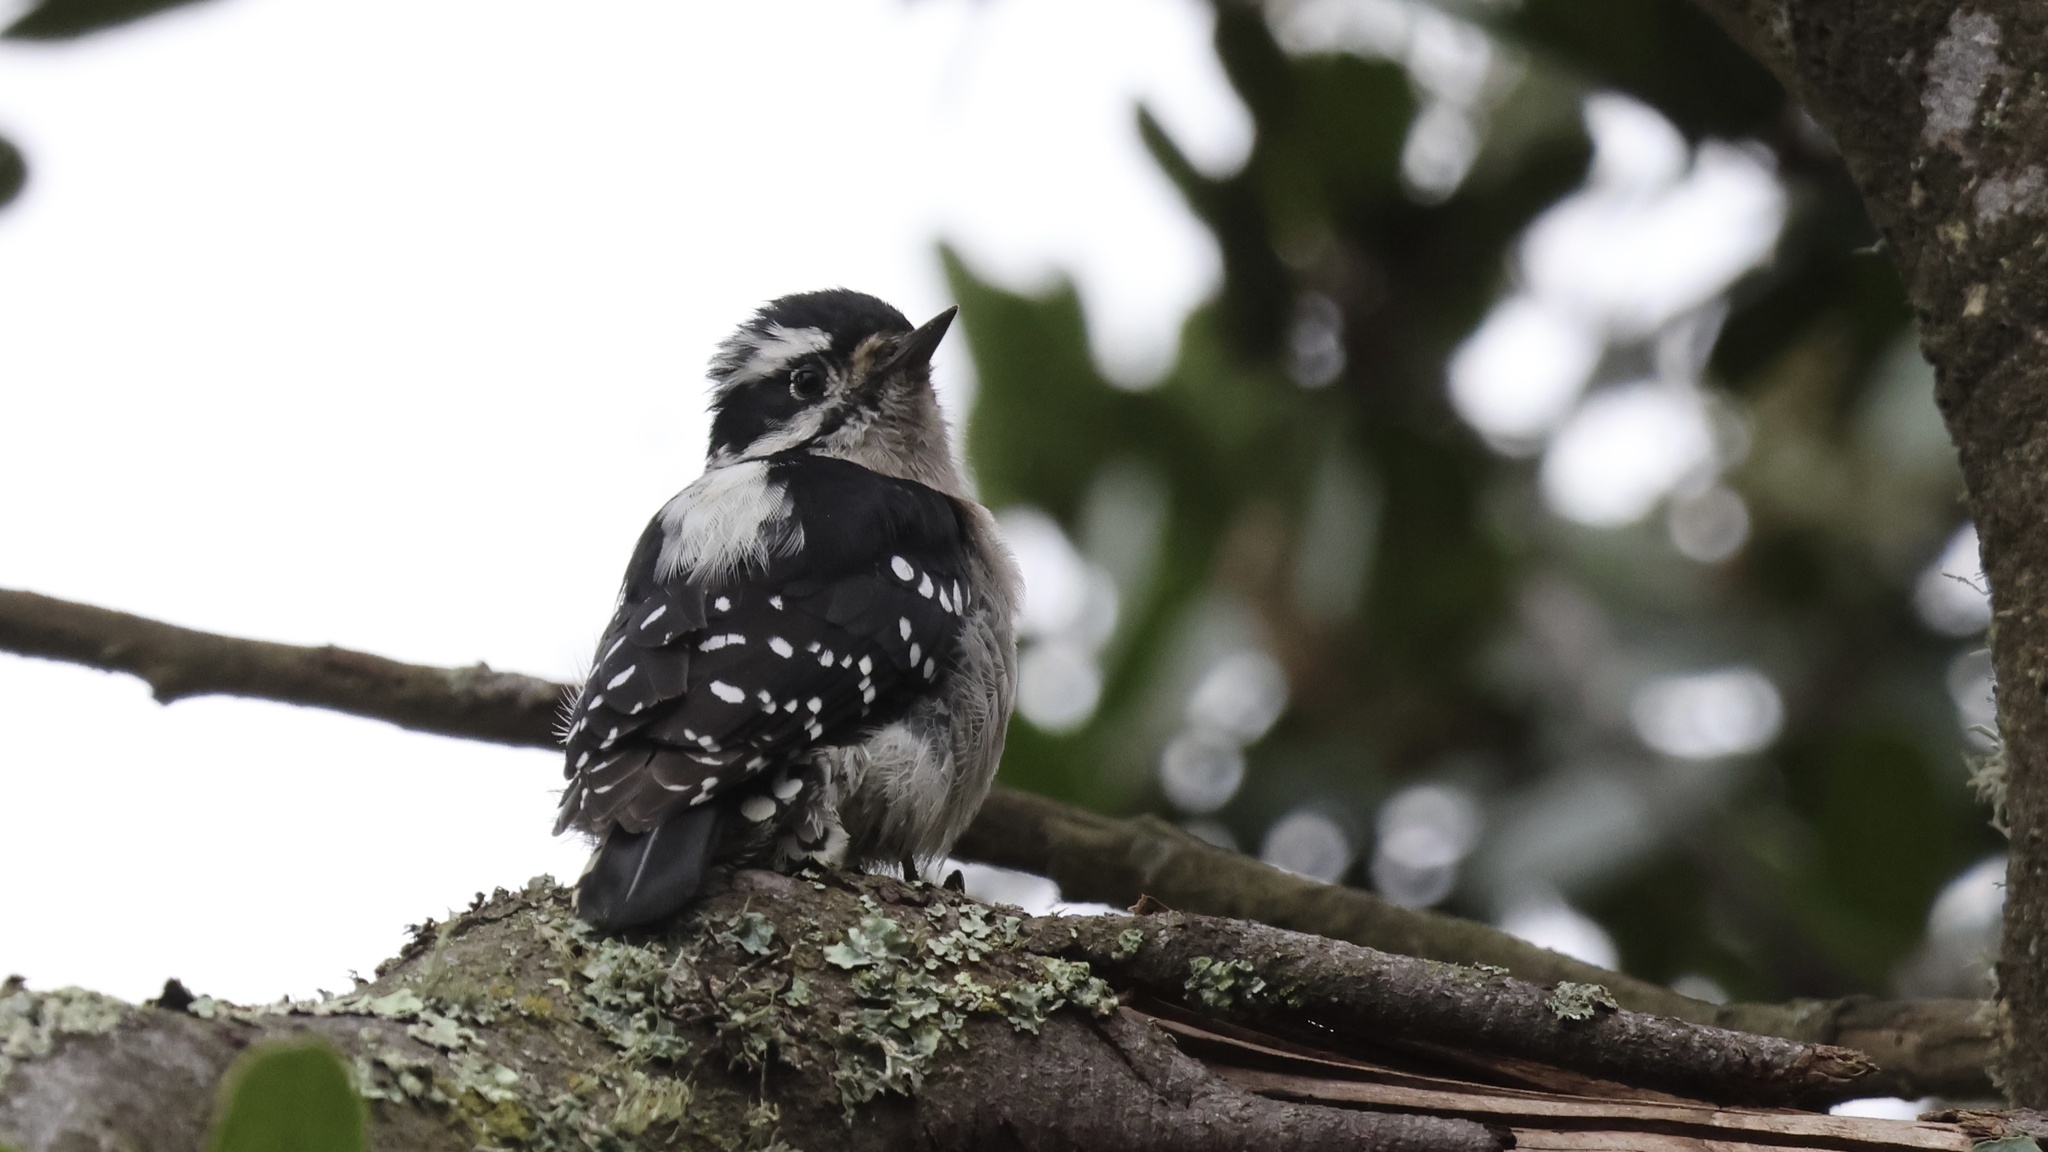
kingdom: Animalia
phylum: Chordata
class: Aves
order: Piciformes
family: Picidae
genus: Dryobates
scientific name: Dryobates pubescens
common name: Downy woodpecker
